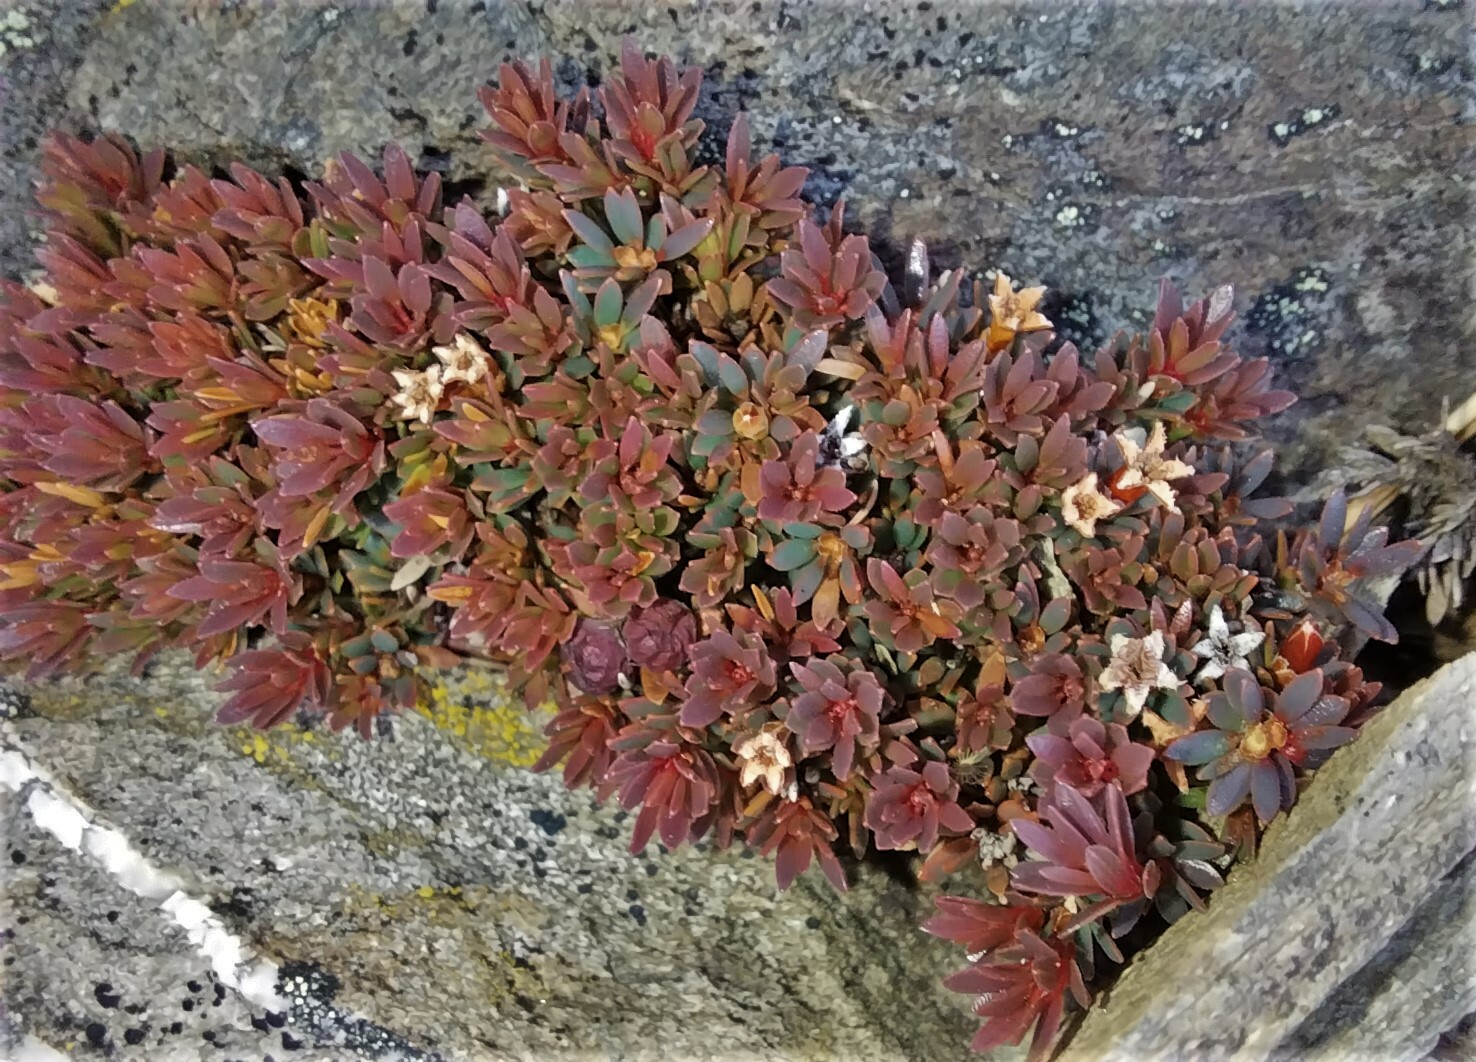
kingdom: Plantae
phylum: Tracheophyta
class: Magnoliopsida
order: Ericales
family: Ericaceae
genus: Pentachondra
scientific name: Pentachondra pumila
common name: Carpet-heath
